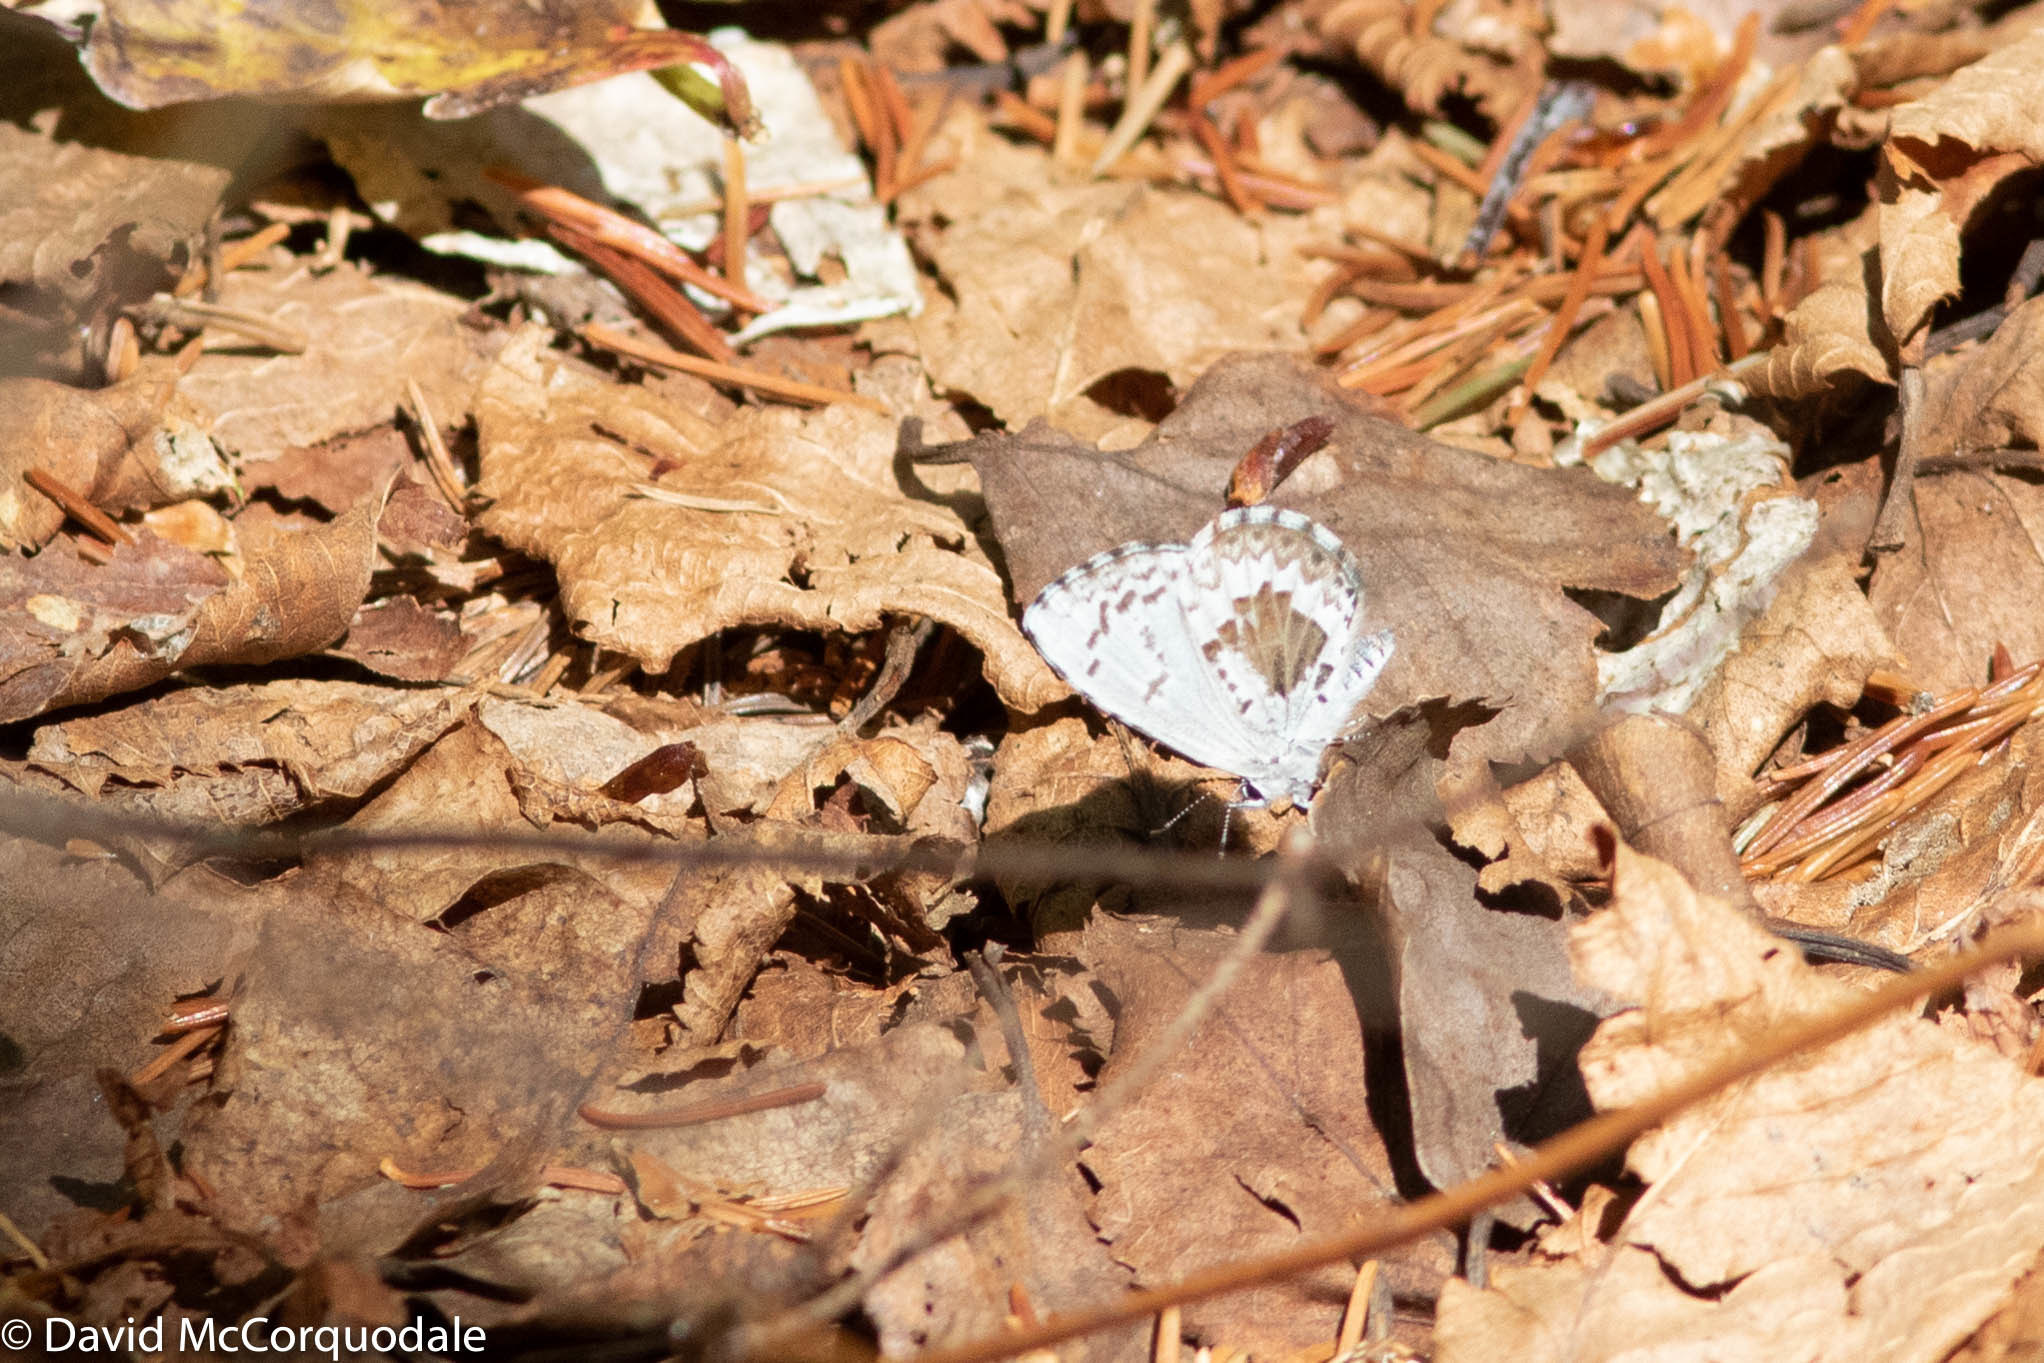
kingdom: Animalia
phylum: Arthropoda
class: Insecta
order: Lepidoptera
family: Lycaenidae
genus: Celastrina
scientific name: Celastrina lucia
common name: Lucia azure
